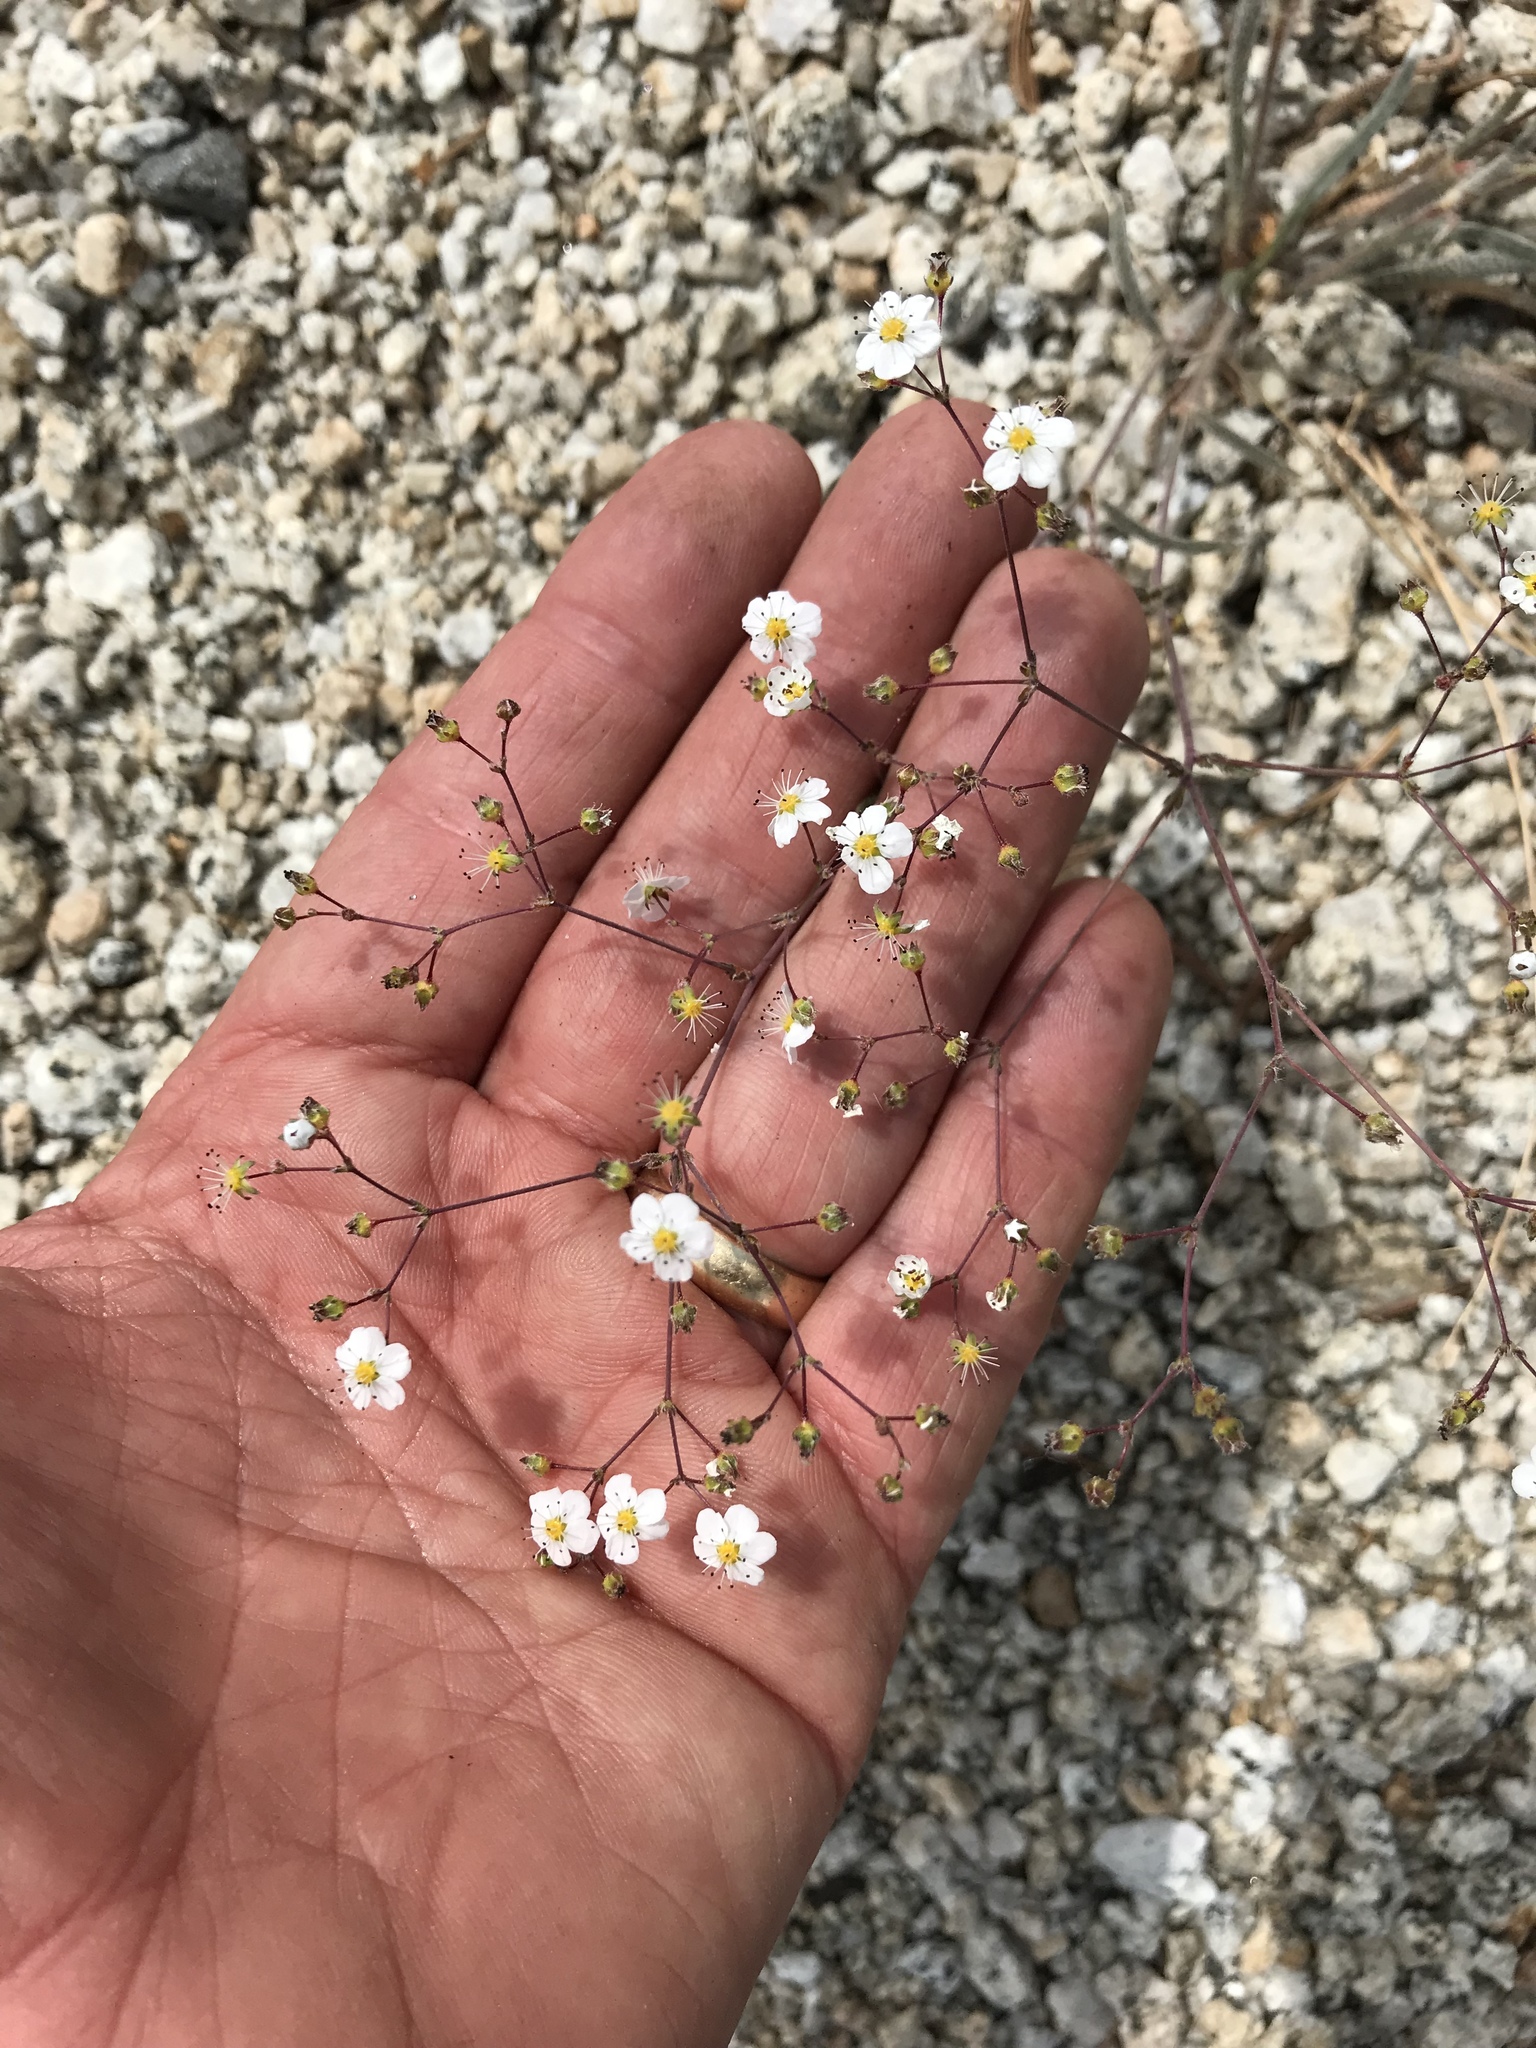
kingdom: Plantae
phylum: Tracheophyta
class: Magnoliopsida
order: Rosales
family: Rosaceae
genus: Potentilla
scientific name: Potentilla santolinoides
